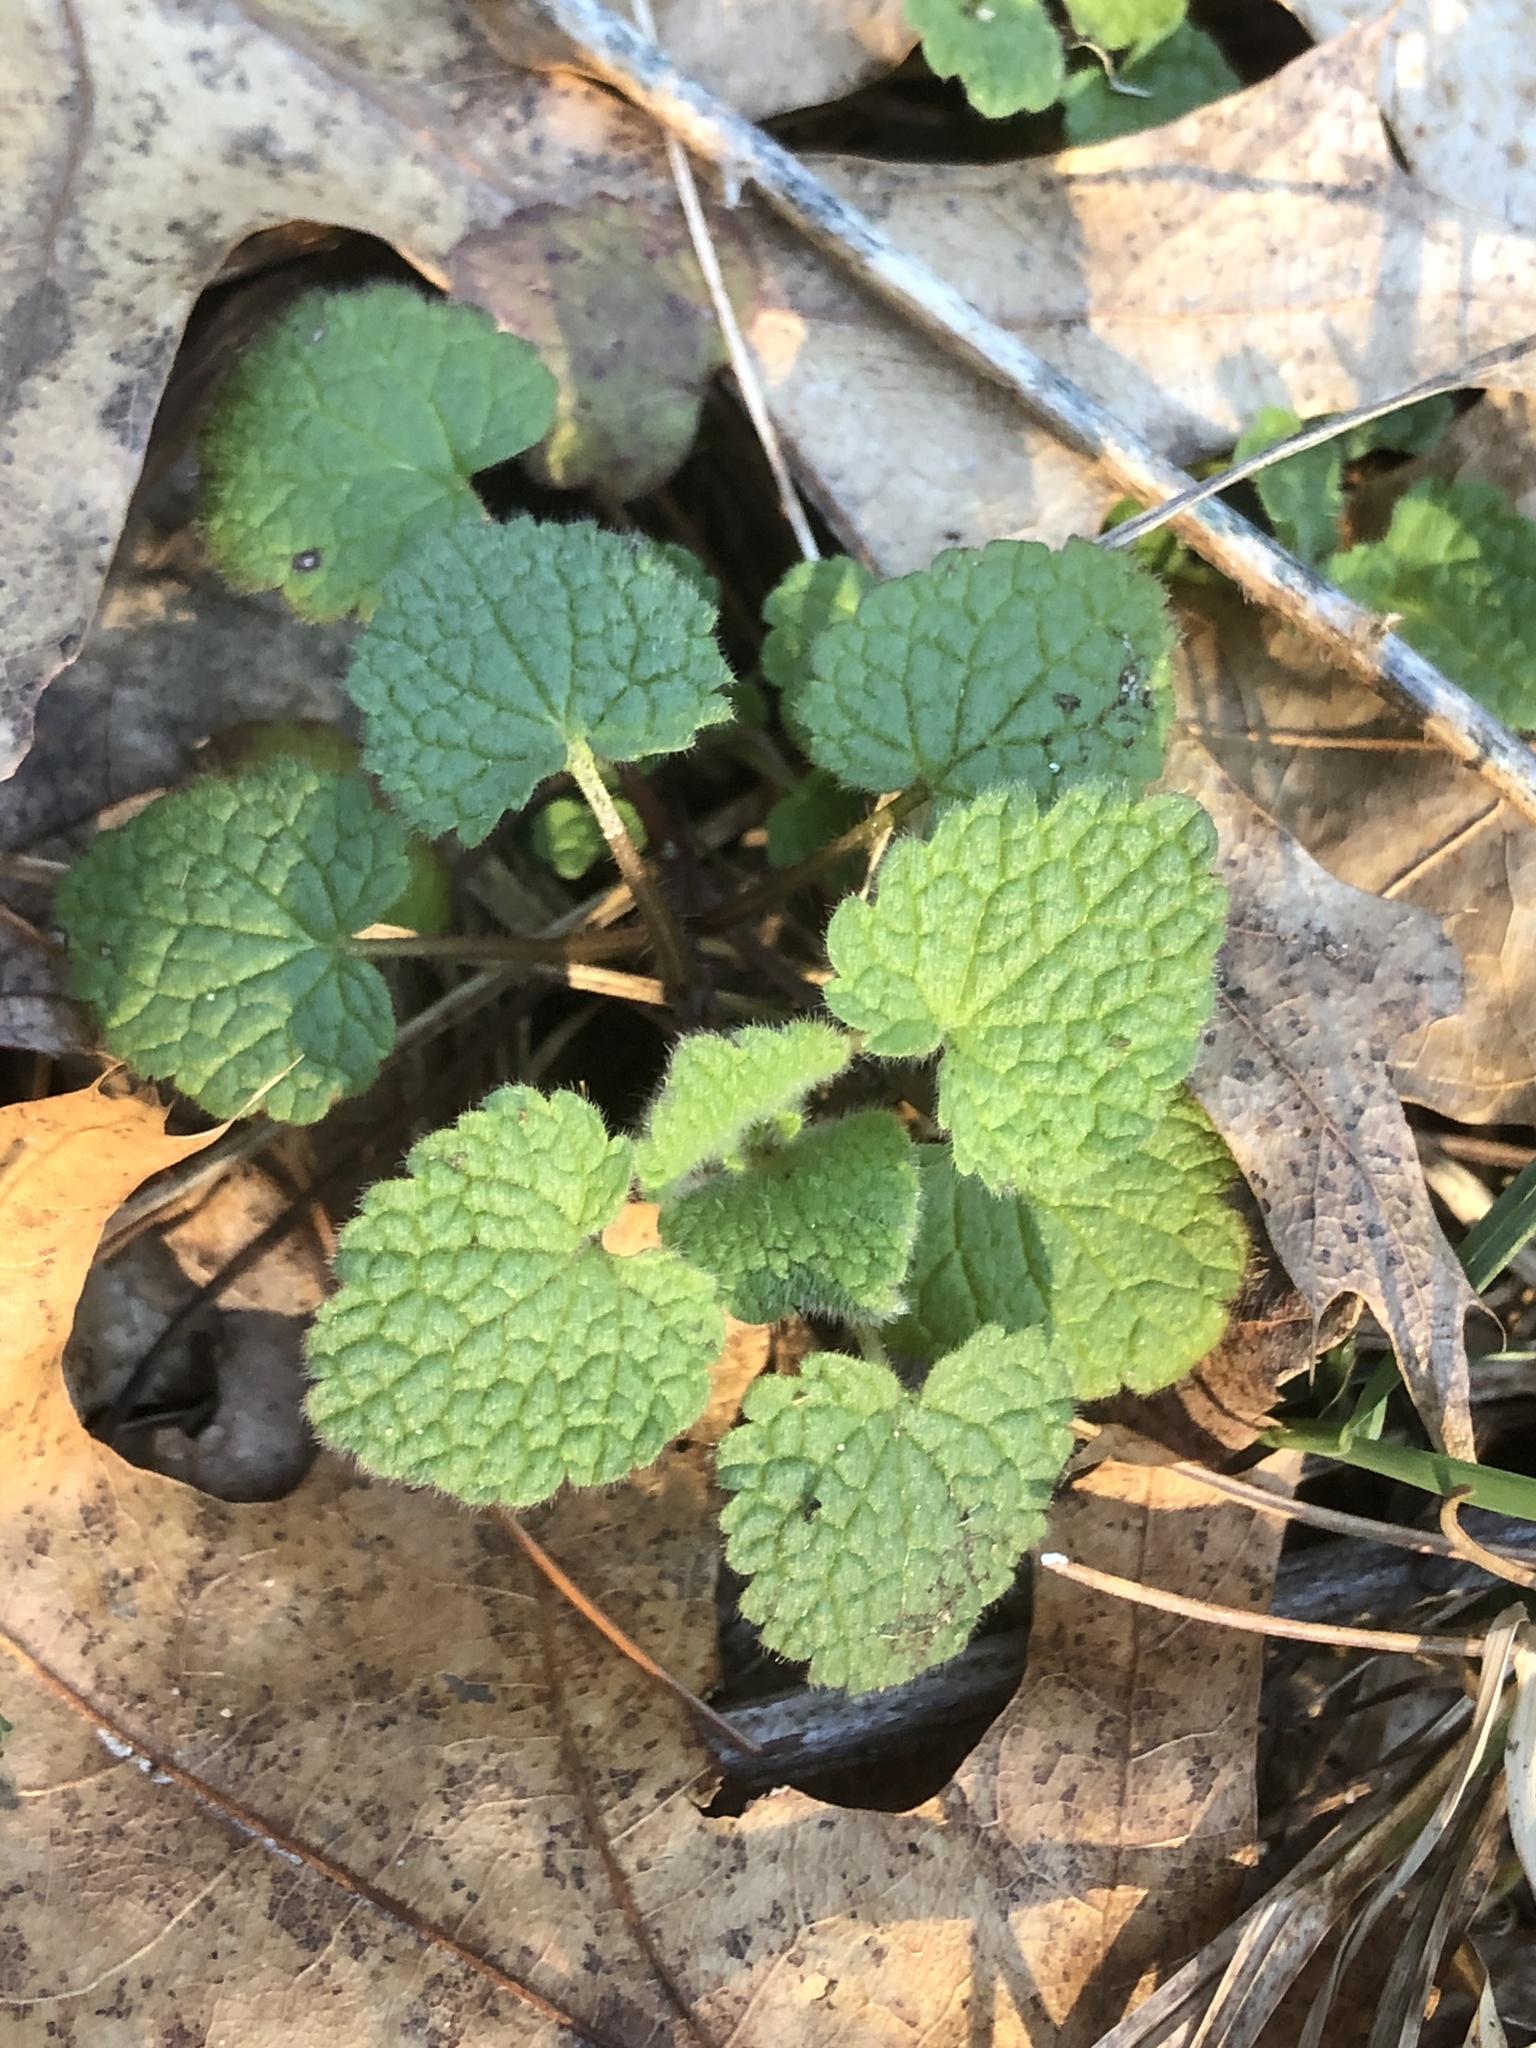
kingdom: Plantae
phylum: Tracheophyta
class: Magnoliopsida
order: Lamiales
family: Lamiaceae
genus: Lamium
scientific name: Lamium purpureum
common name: Red dead-nettle
